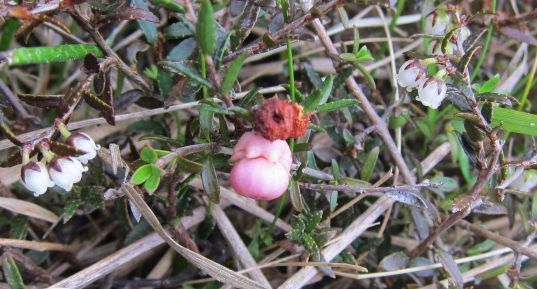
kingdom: Plantae
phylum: Tracheophyta
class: Magnoliopsida
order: Ericales
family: Ericaceae
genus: Gaultheria
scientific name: Gaultheria macrostigma
